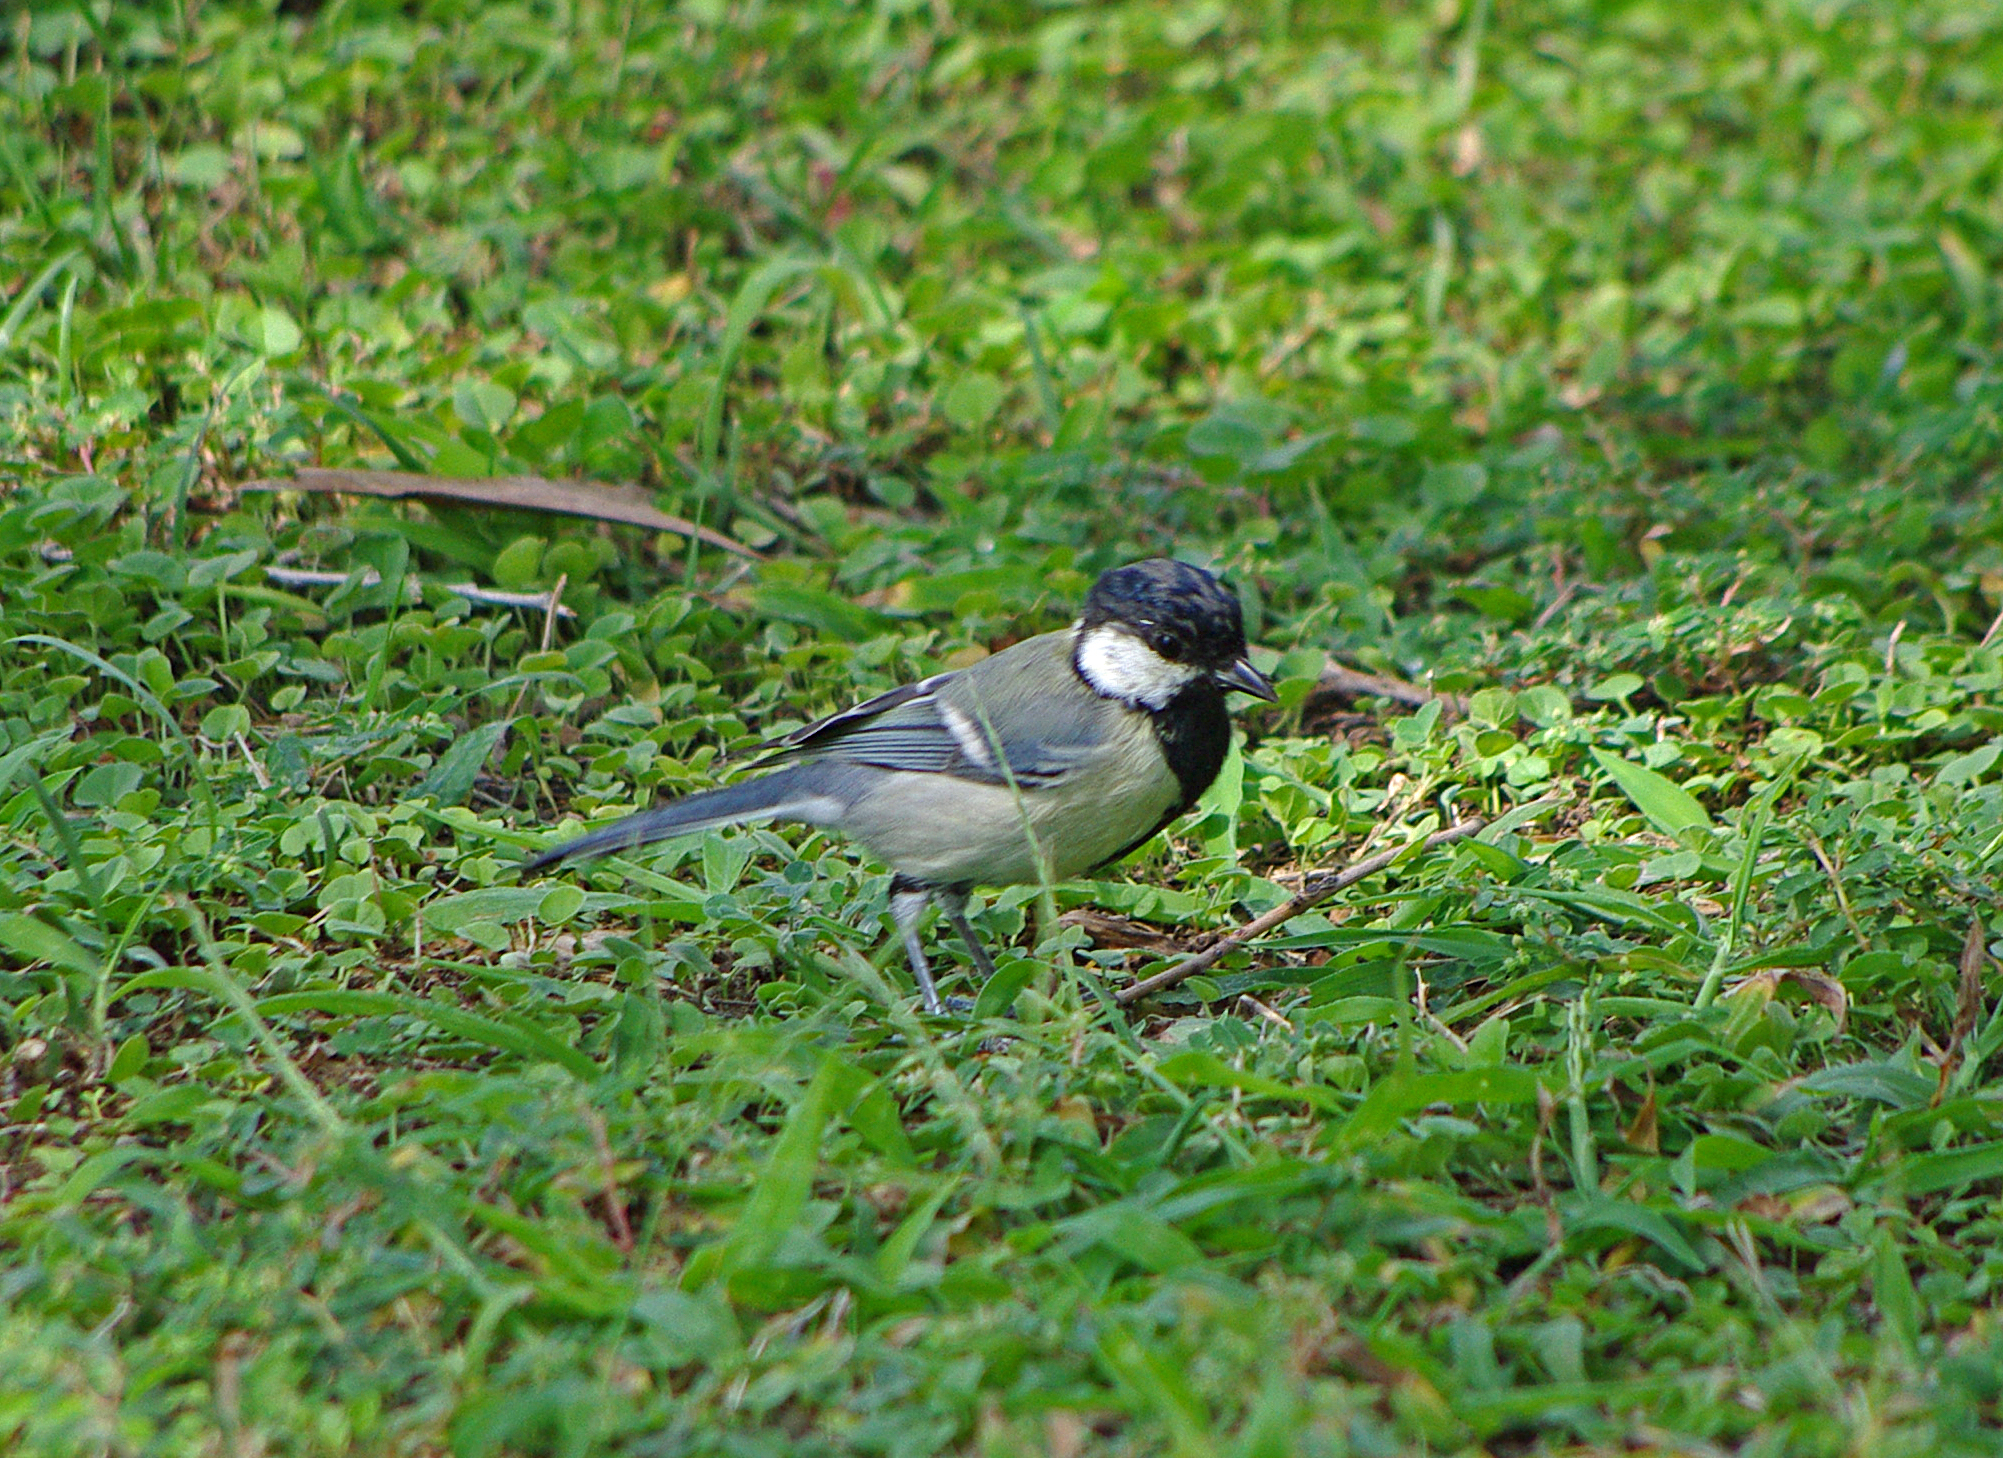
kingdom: Animalia
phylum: Chordata
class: Aves
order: Passeriformes
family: Paridae
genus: Parus
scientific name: Parus major
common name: Great tit
